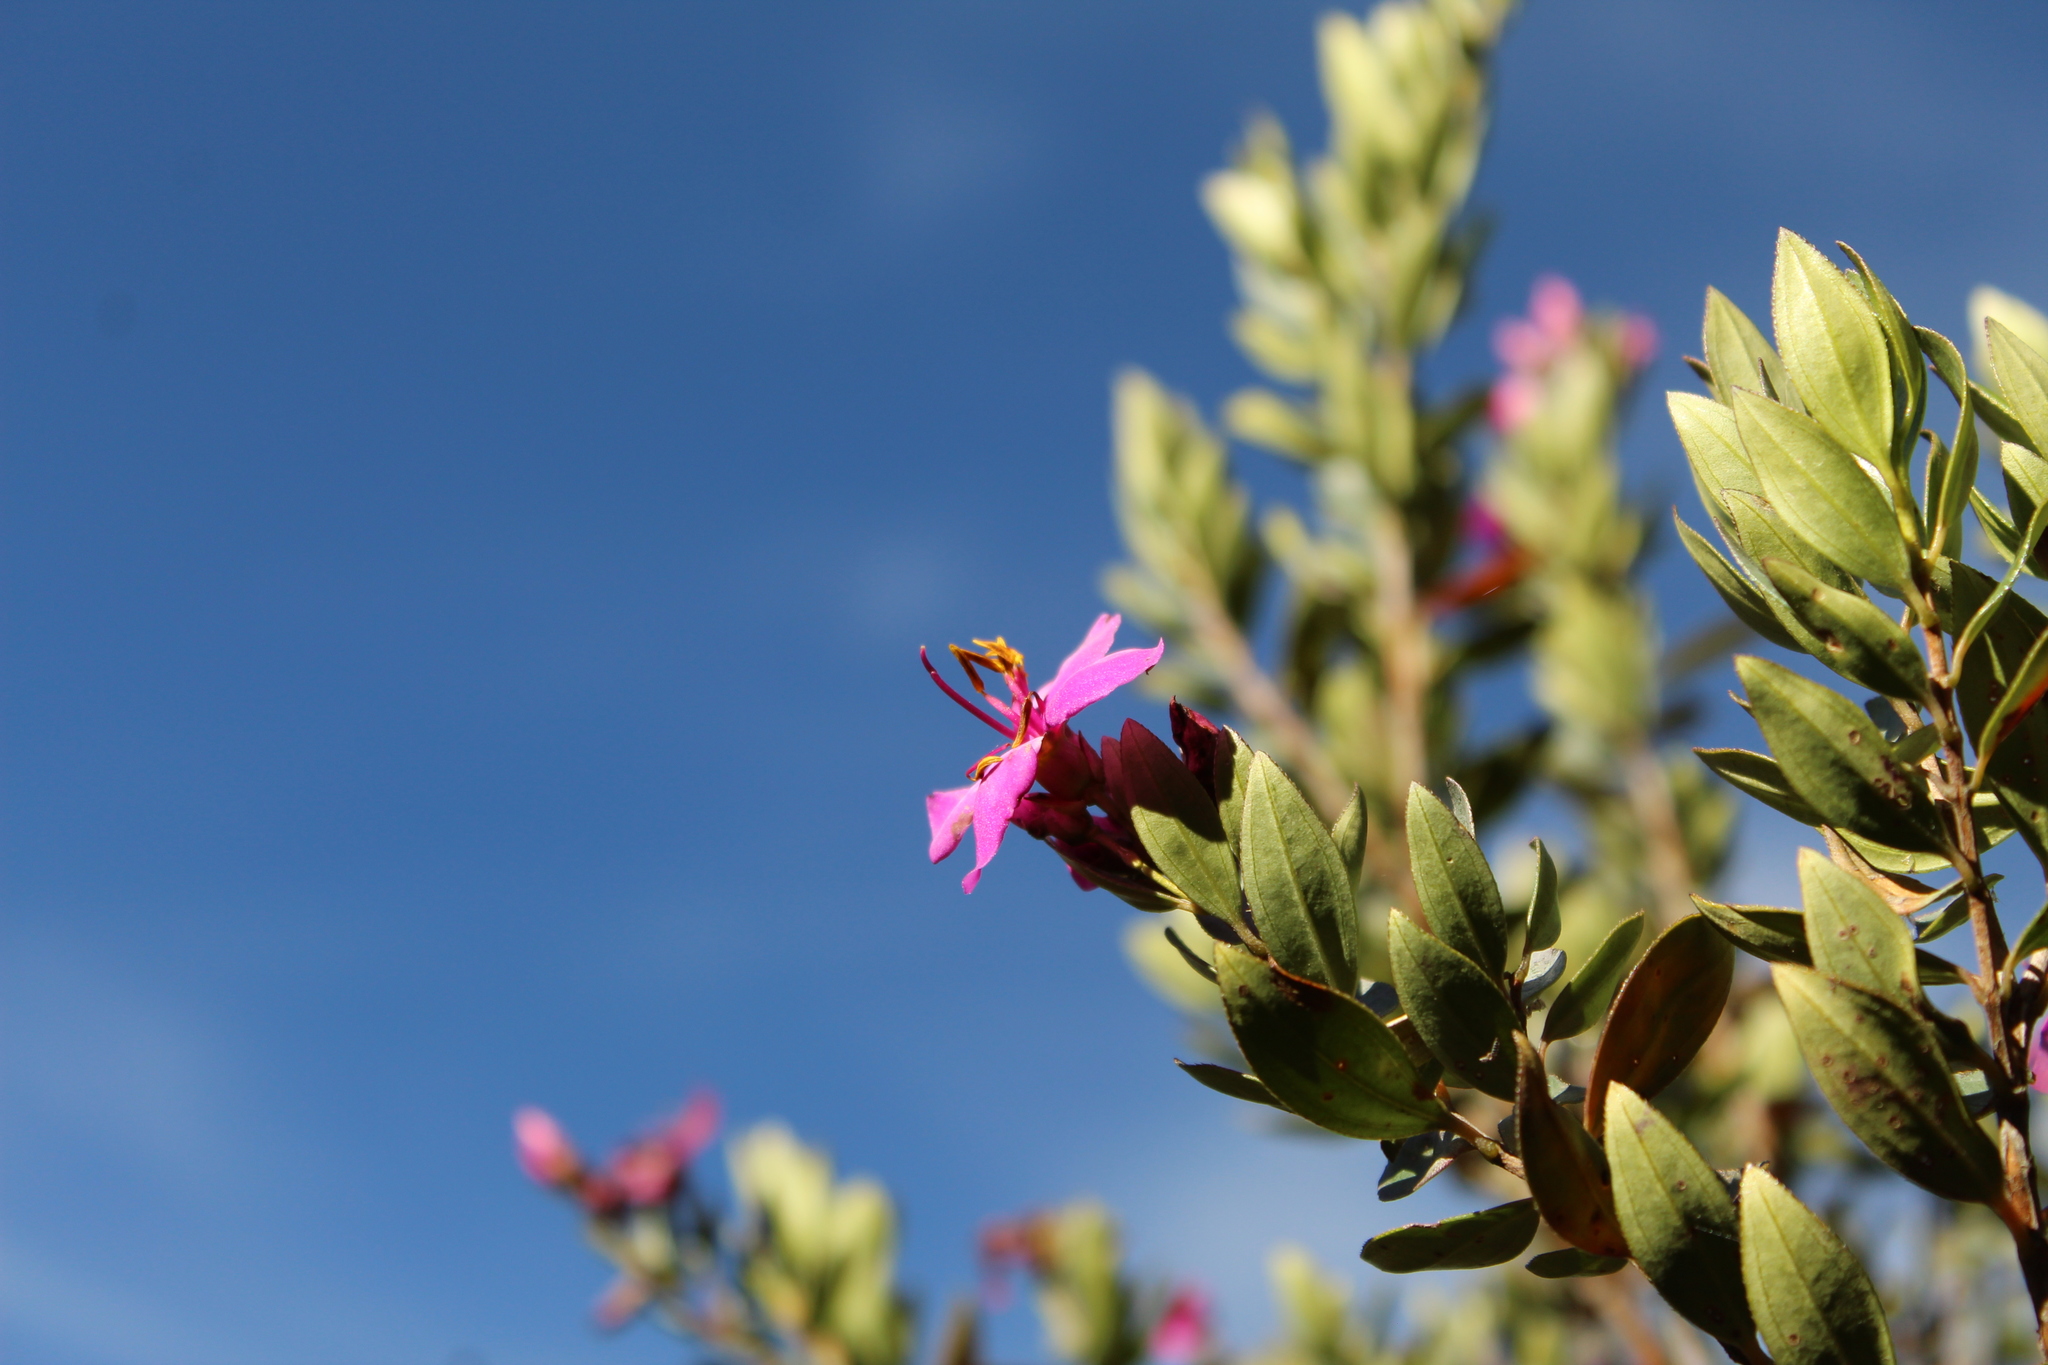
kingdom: Plantae
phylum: Tracheophyta
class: Magnoliopsida
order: Myrtales
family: Melastomataceae
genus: Bucquetia
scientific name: Bucquetia glutinosa
